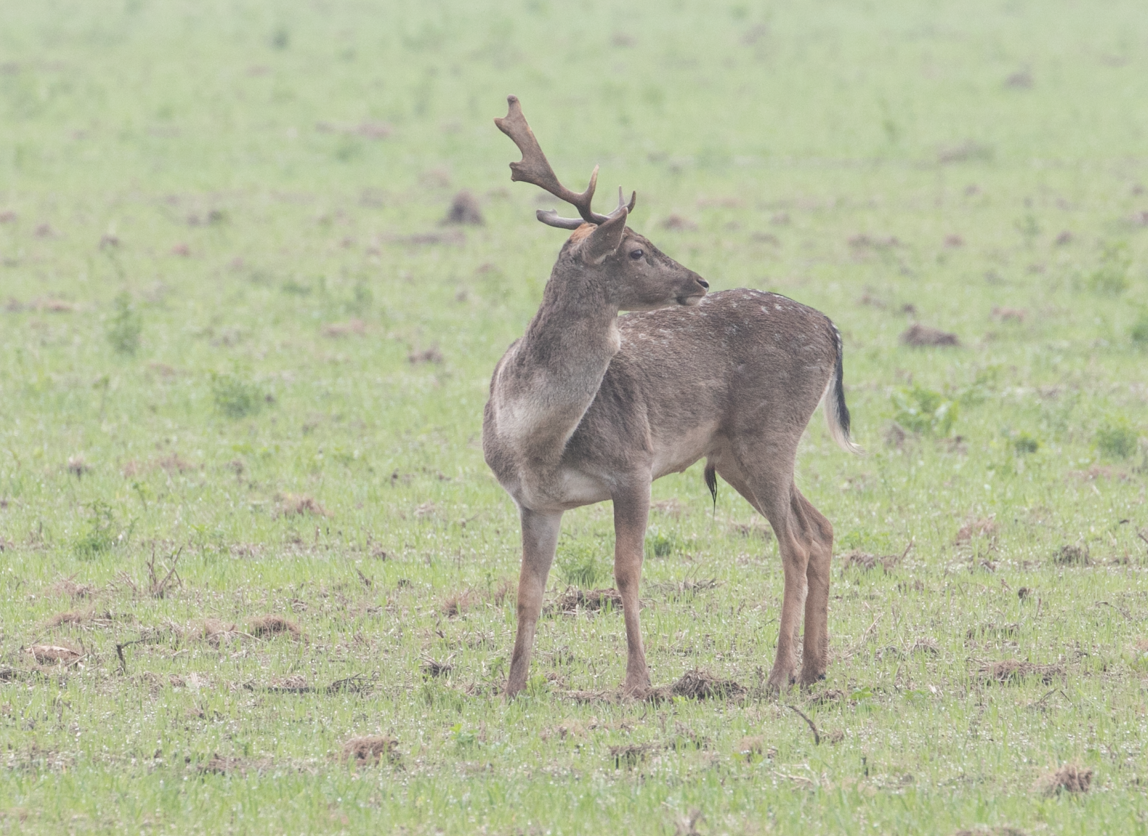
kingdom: Animalia
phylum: Chordata
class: Mammalia
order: Artiodactyla
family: Cervidae
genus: Dama
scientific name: Dama dama
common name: Fallow deer
